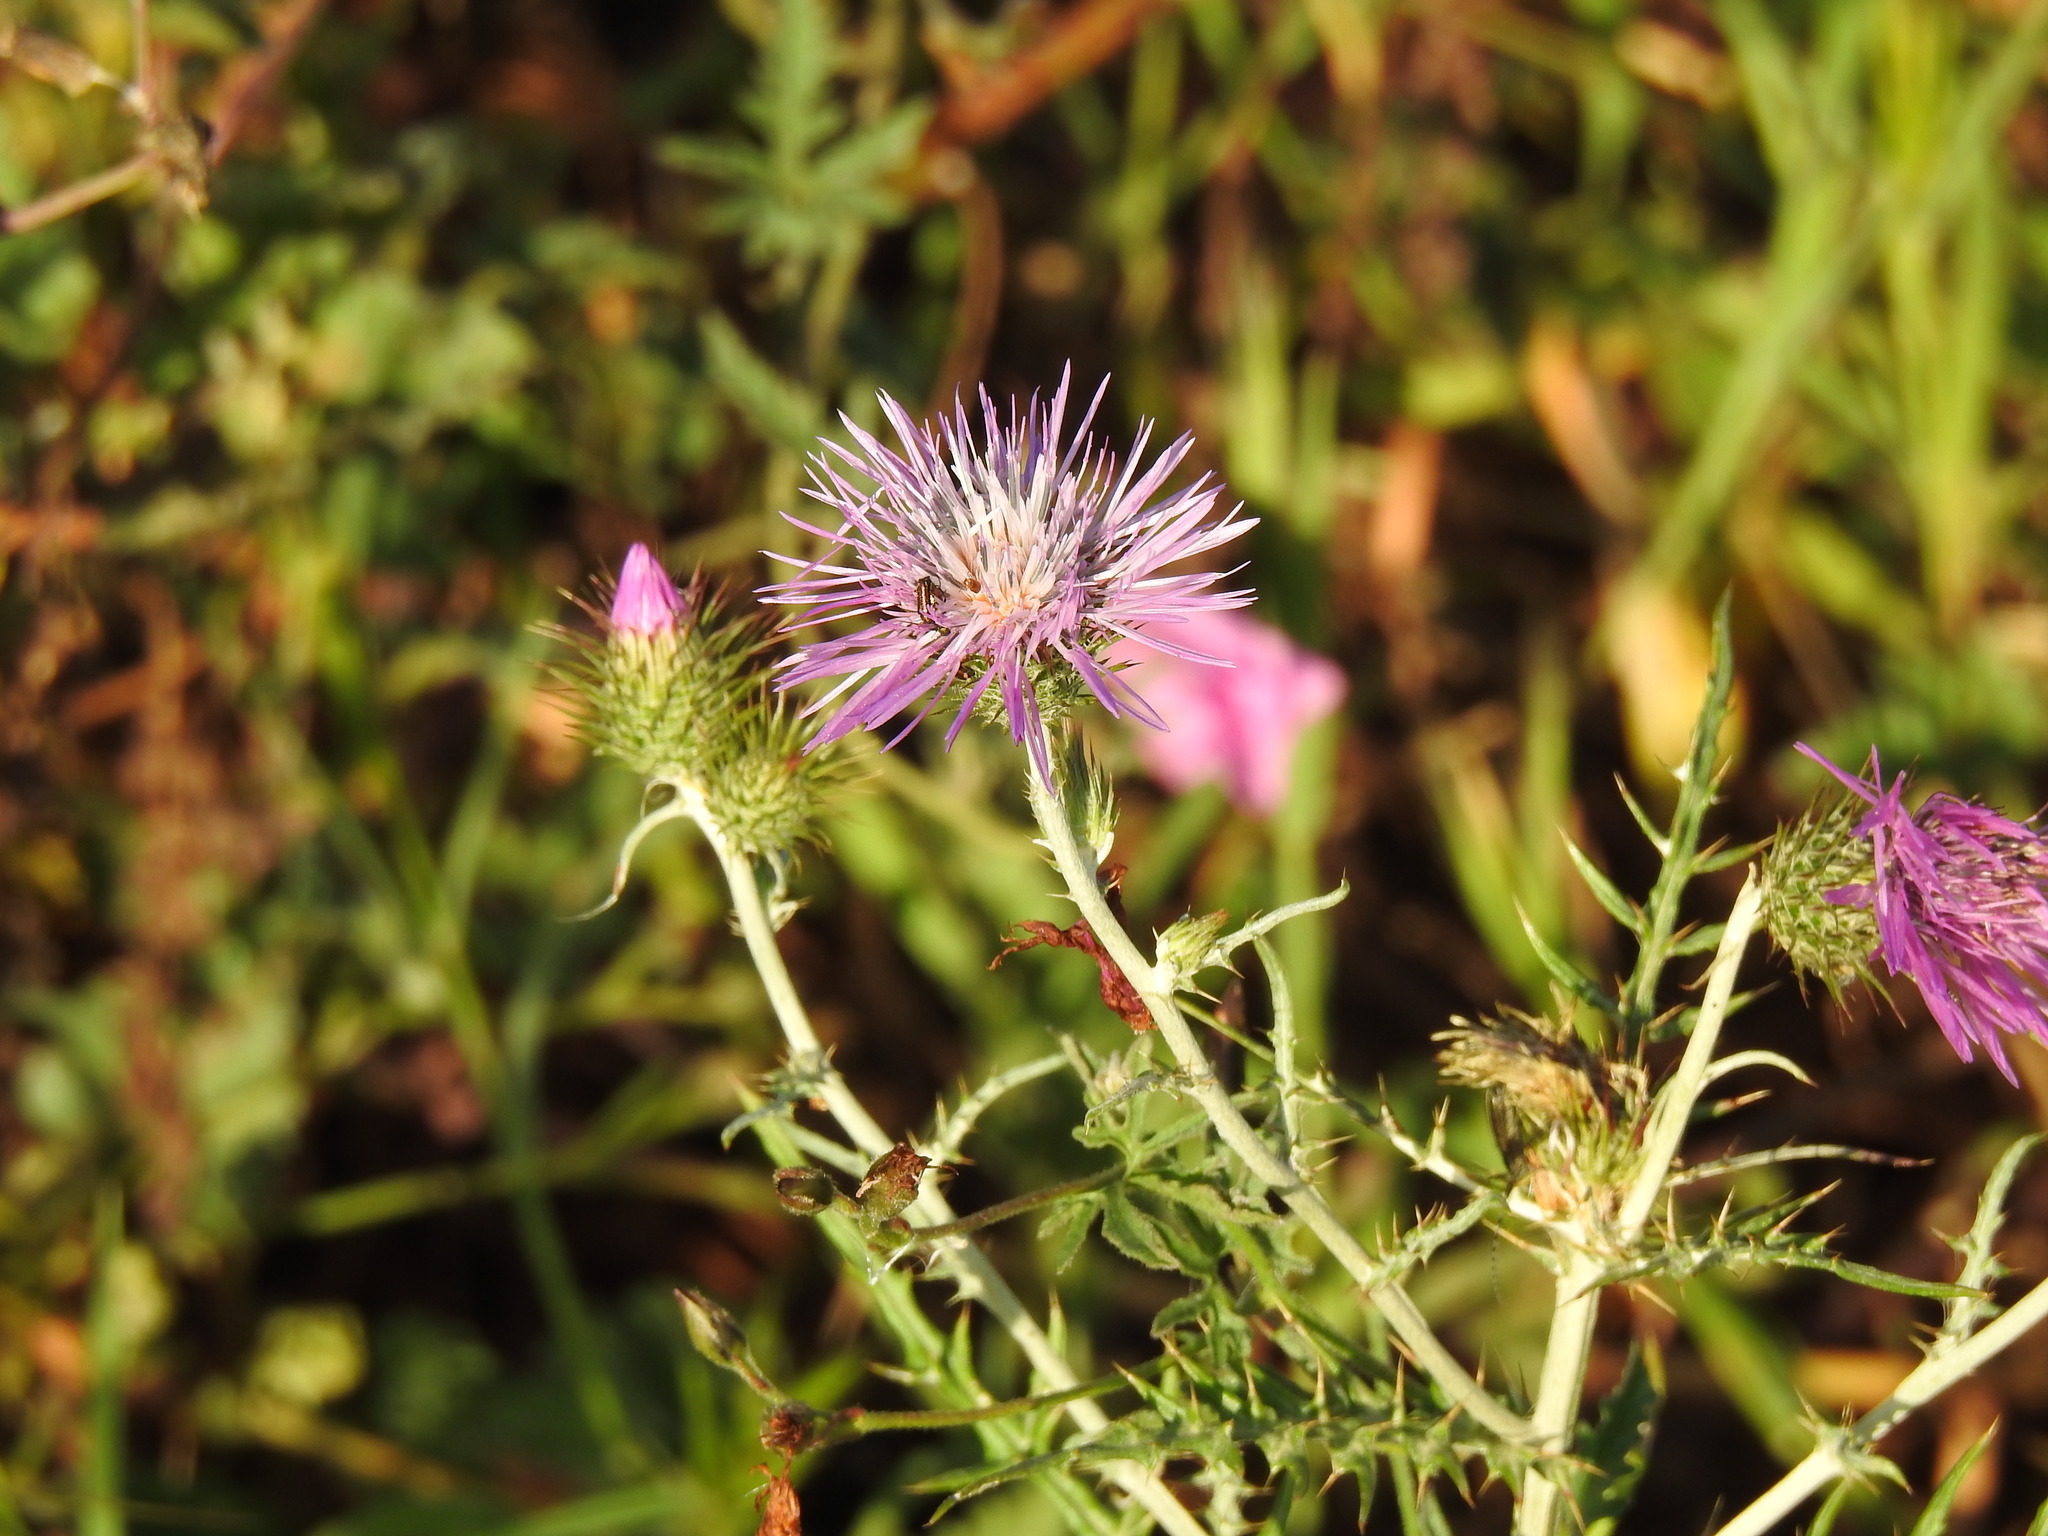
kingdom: Plantae
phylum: Tracheophyta
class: Magnoliopsida
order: Asterales
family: Asteraceae
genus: Galactites
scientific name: Galactites tomentosa
